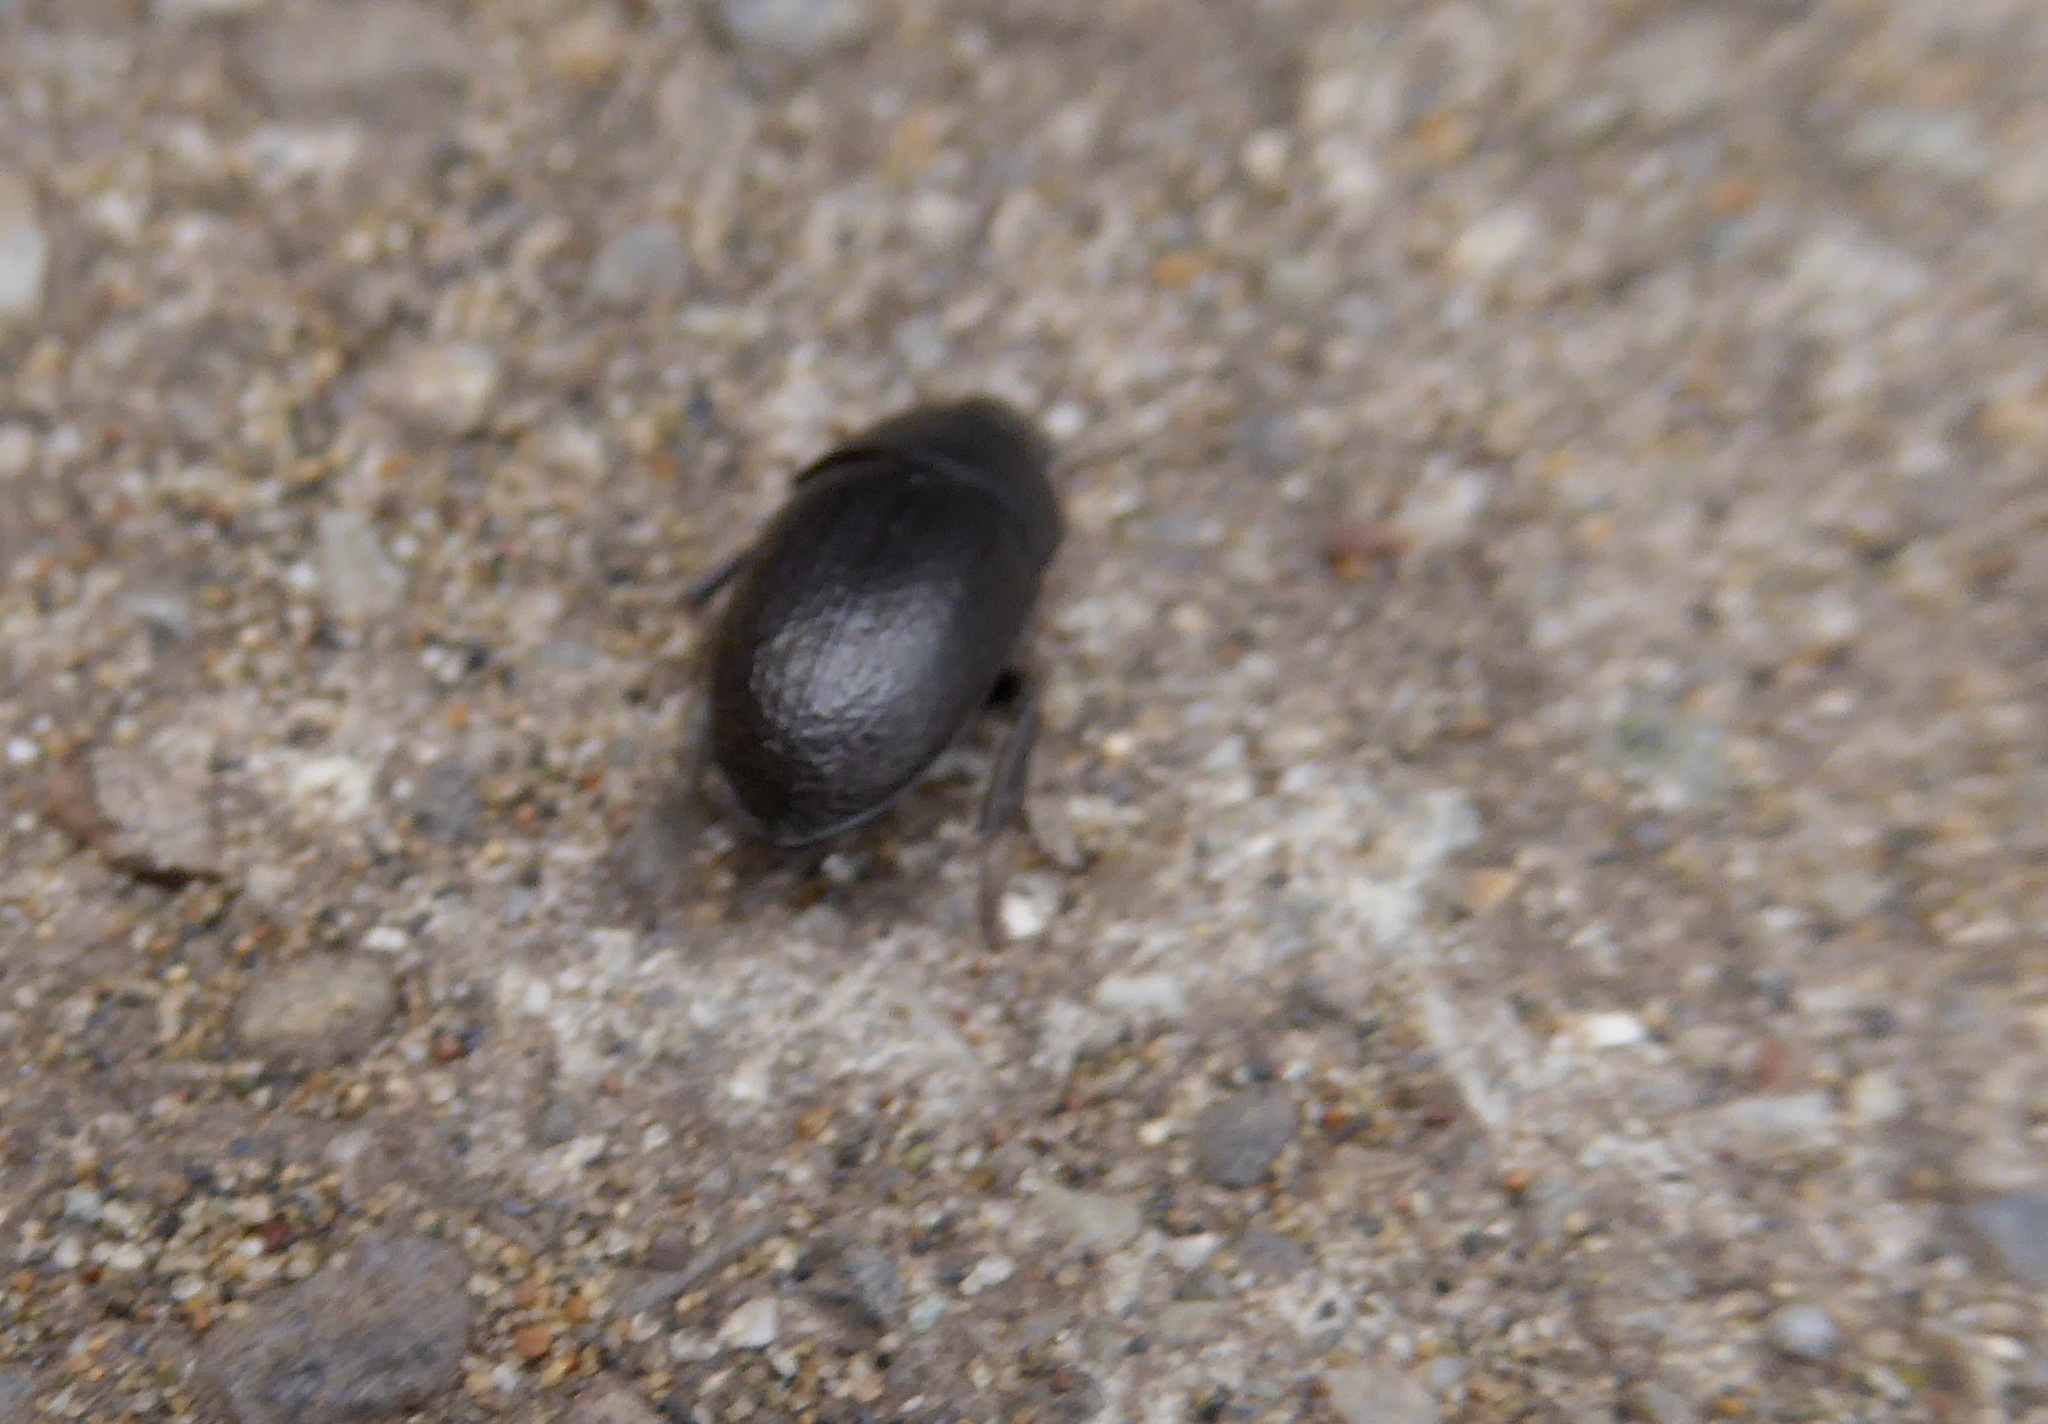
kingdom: Animalia
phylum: Arthropoda
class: Insecta
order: Coleoptera
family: Tenebrionidae
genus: Coniontis
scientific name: Coniontis
